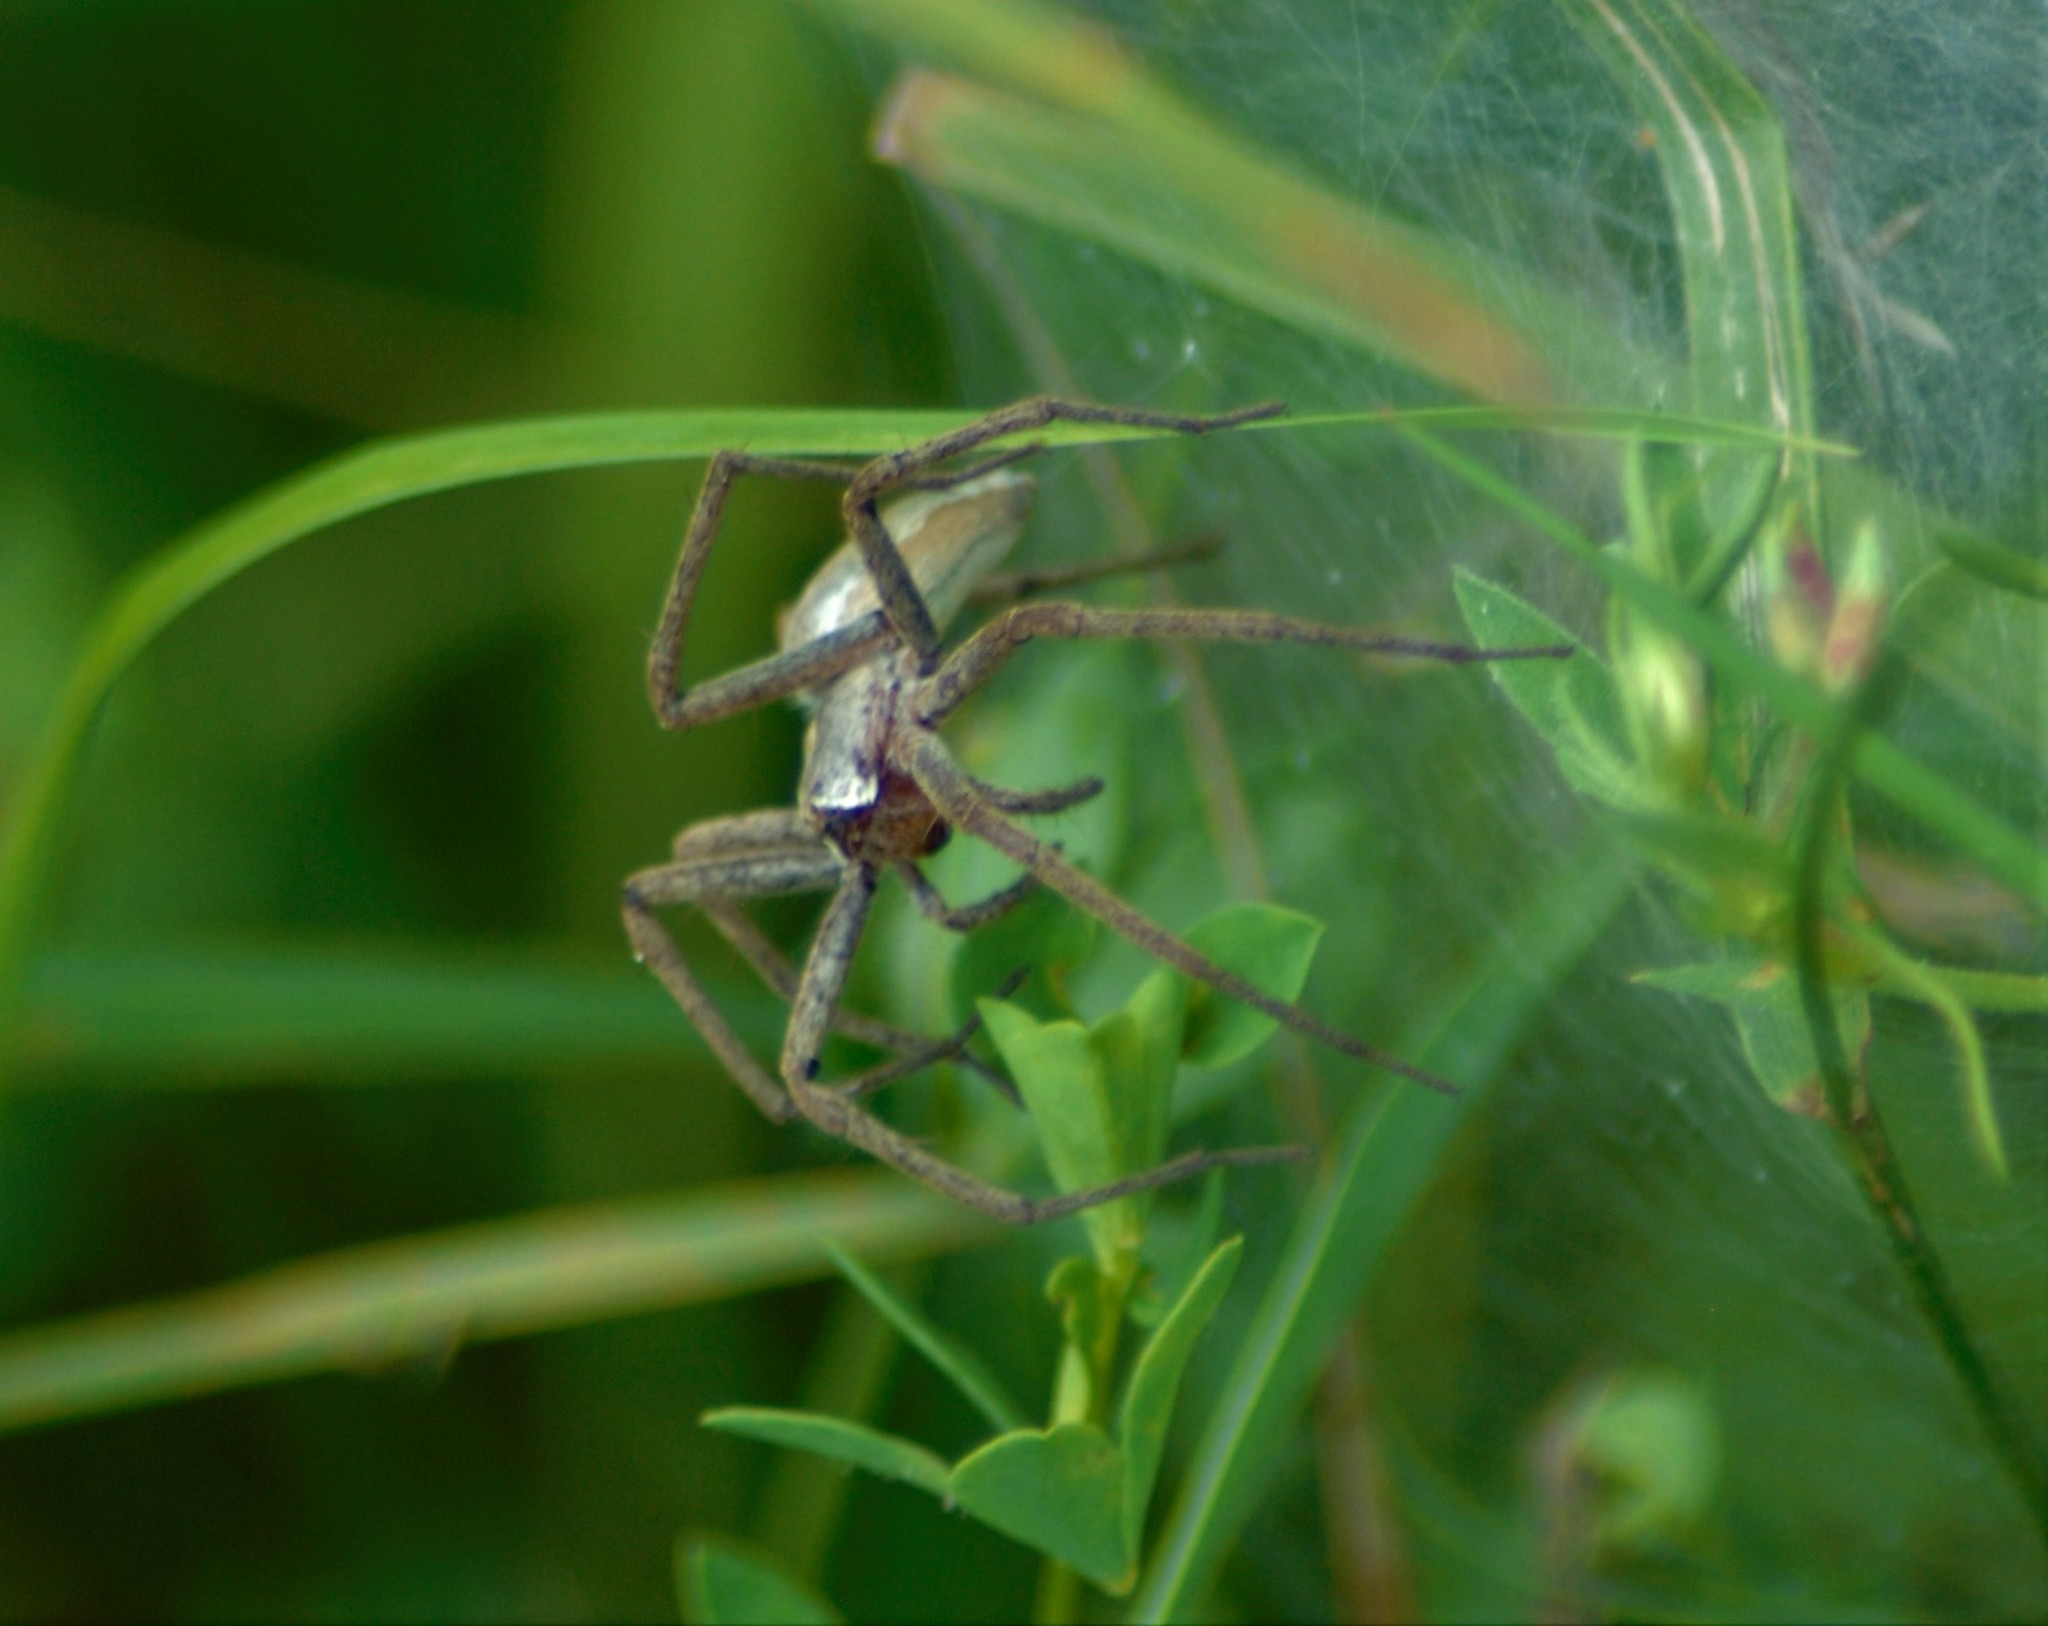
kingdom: Animalia
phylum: Arthropoda
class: Arachnida
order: Araneae
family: Pisauridae
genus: Pisaura
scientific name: Pisaura mirabilis
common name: Tent spider
